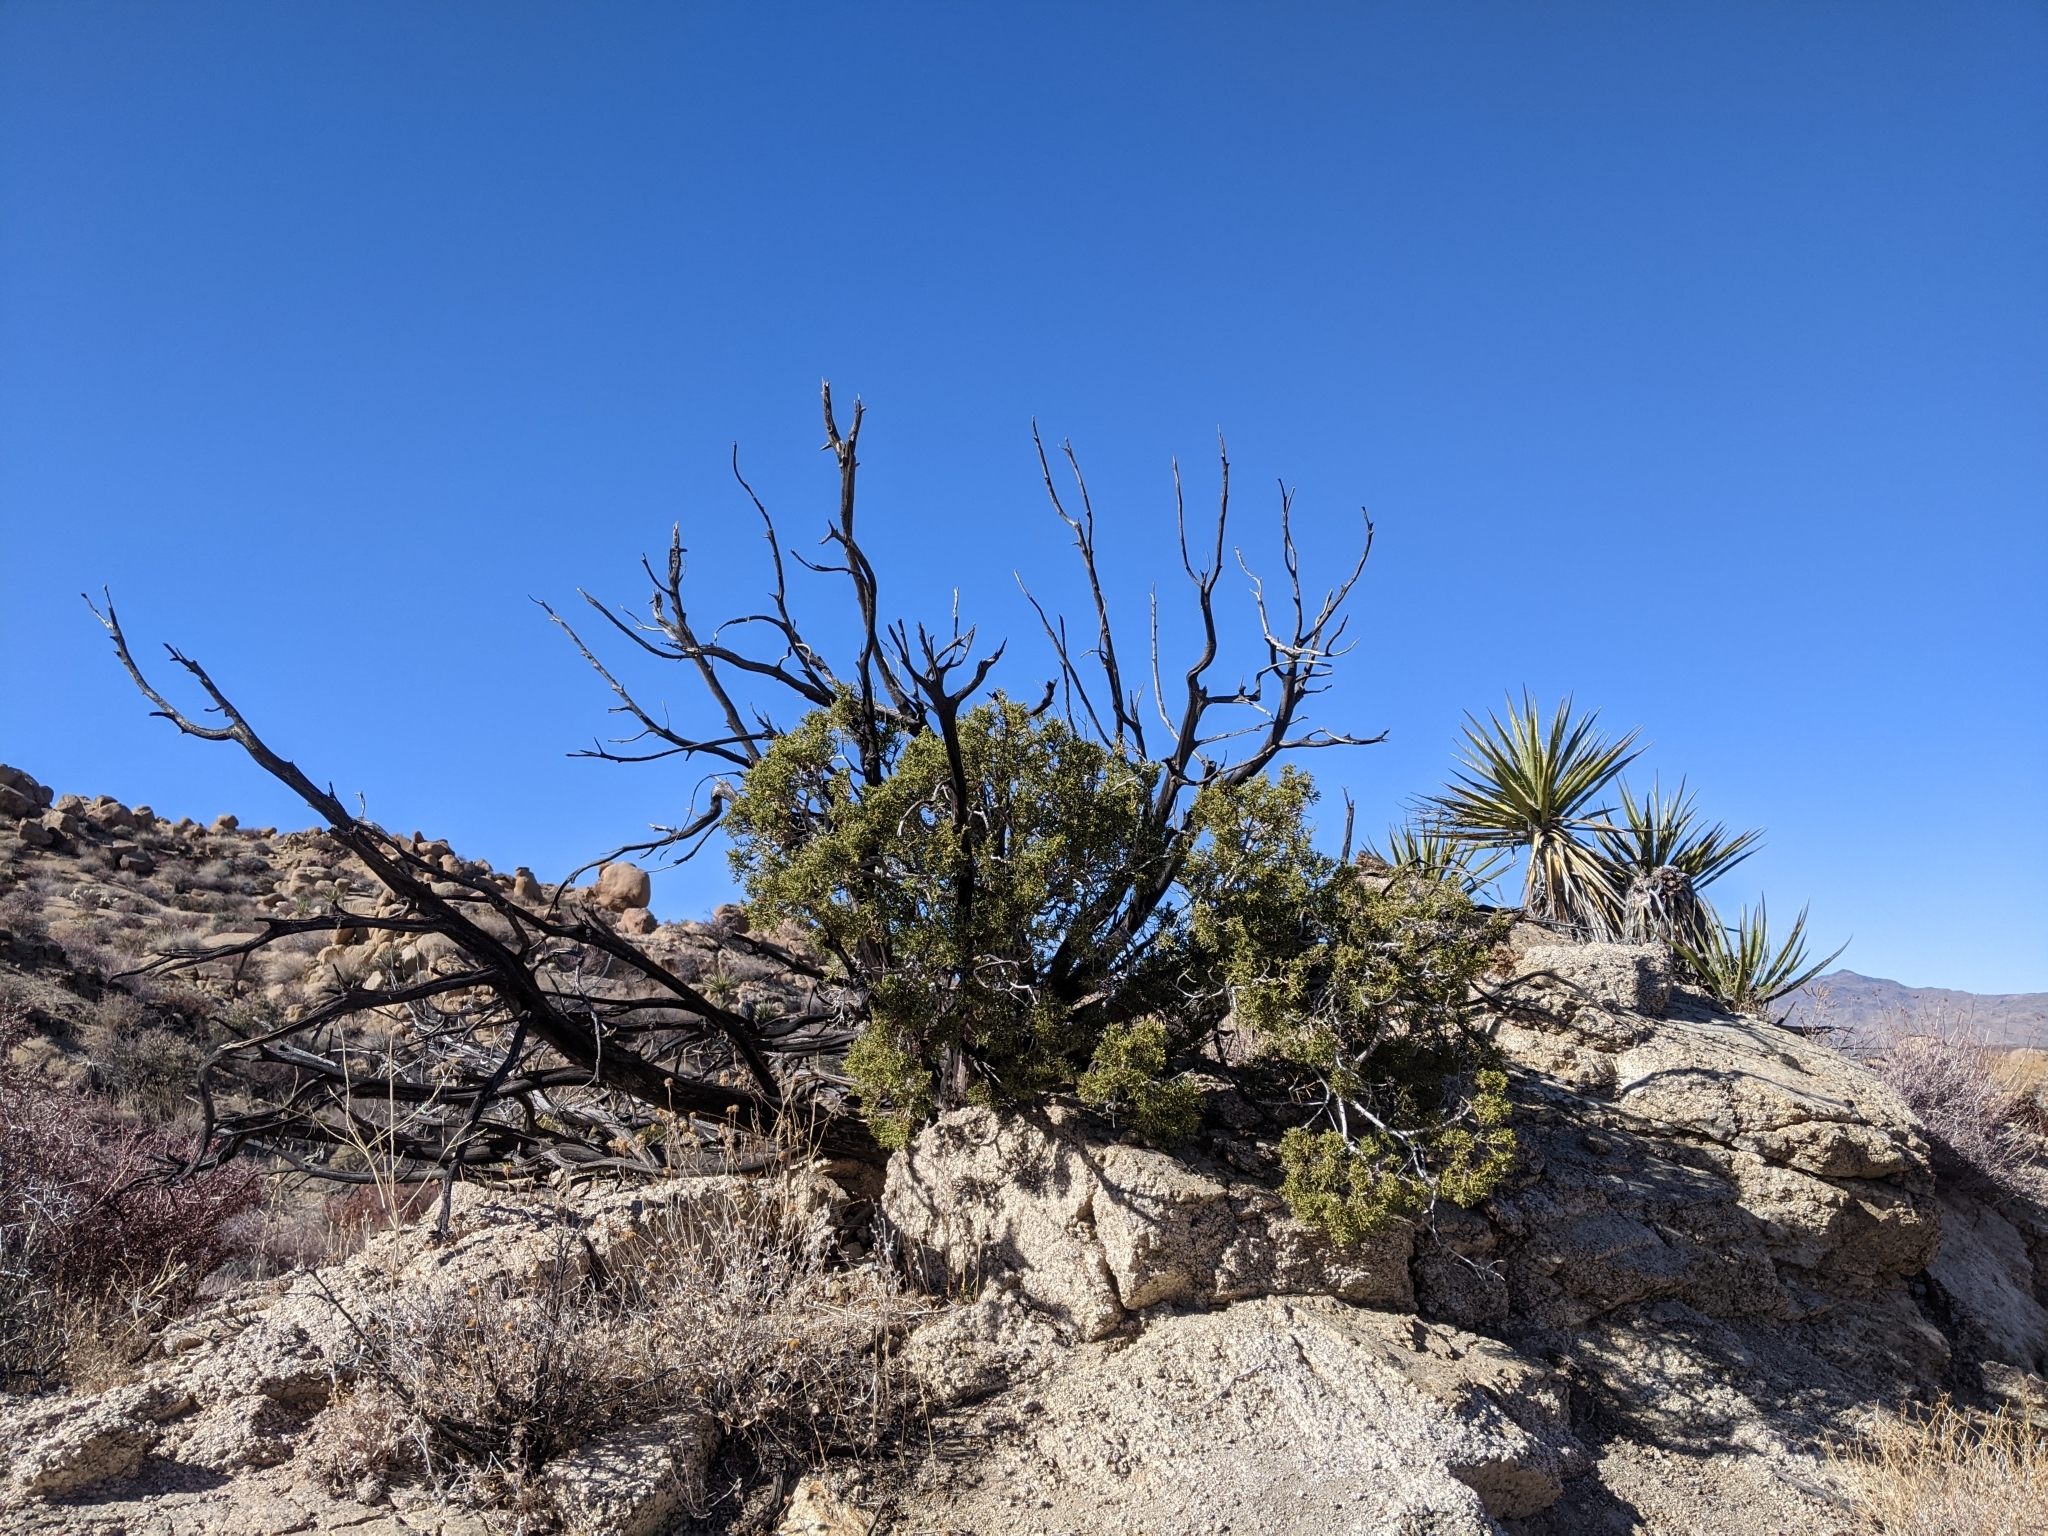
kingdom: Plantae
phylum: Tracheophyta
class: Pinopsida
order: Pinales
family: Cupressaceae
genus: Juniperus
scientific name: Juniperus californica
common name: California juniper
